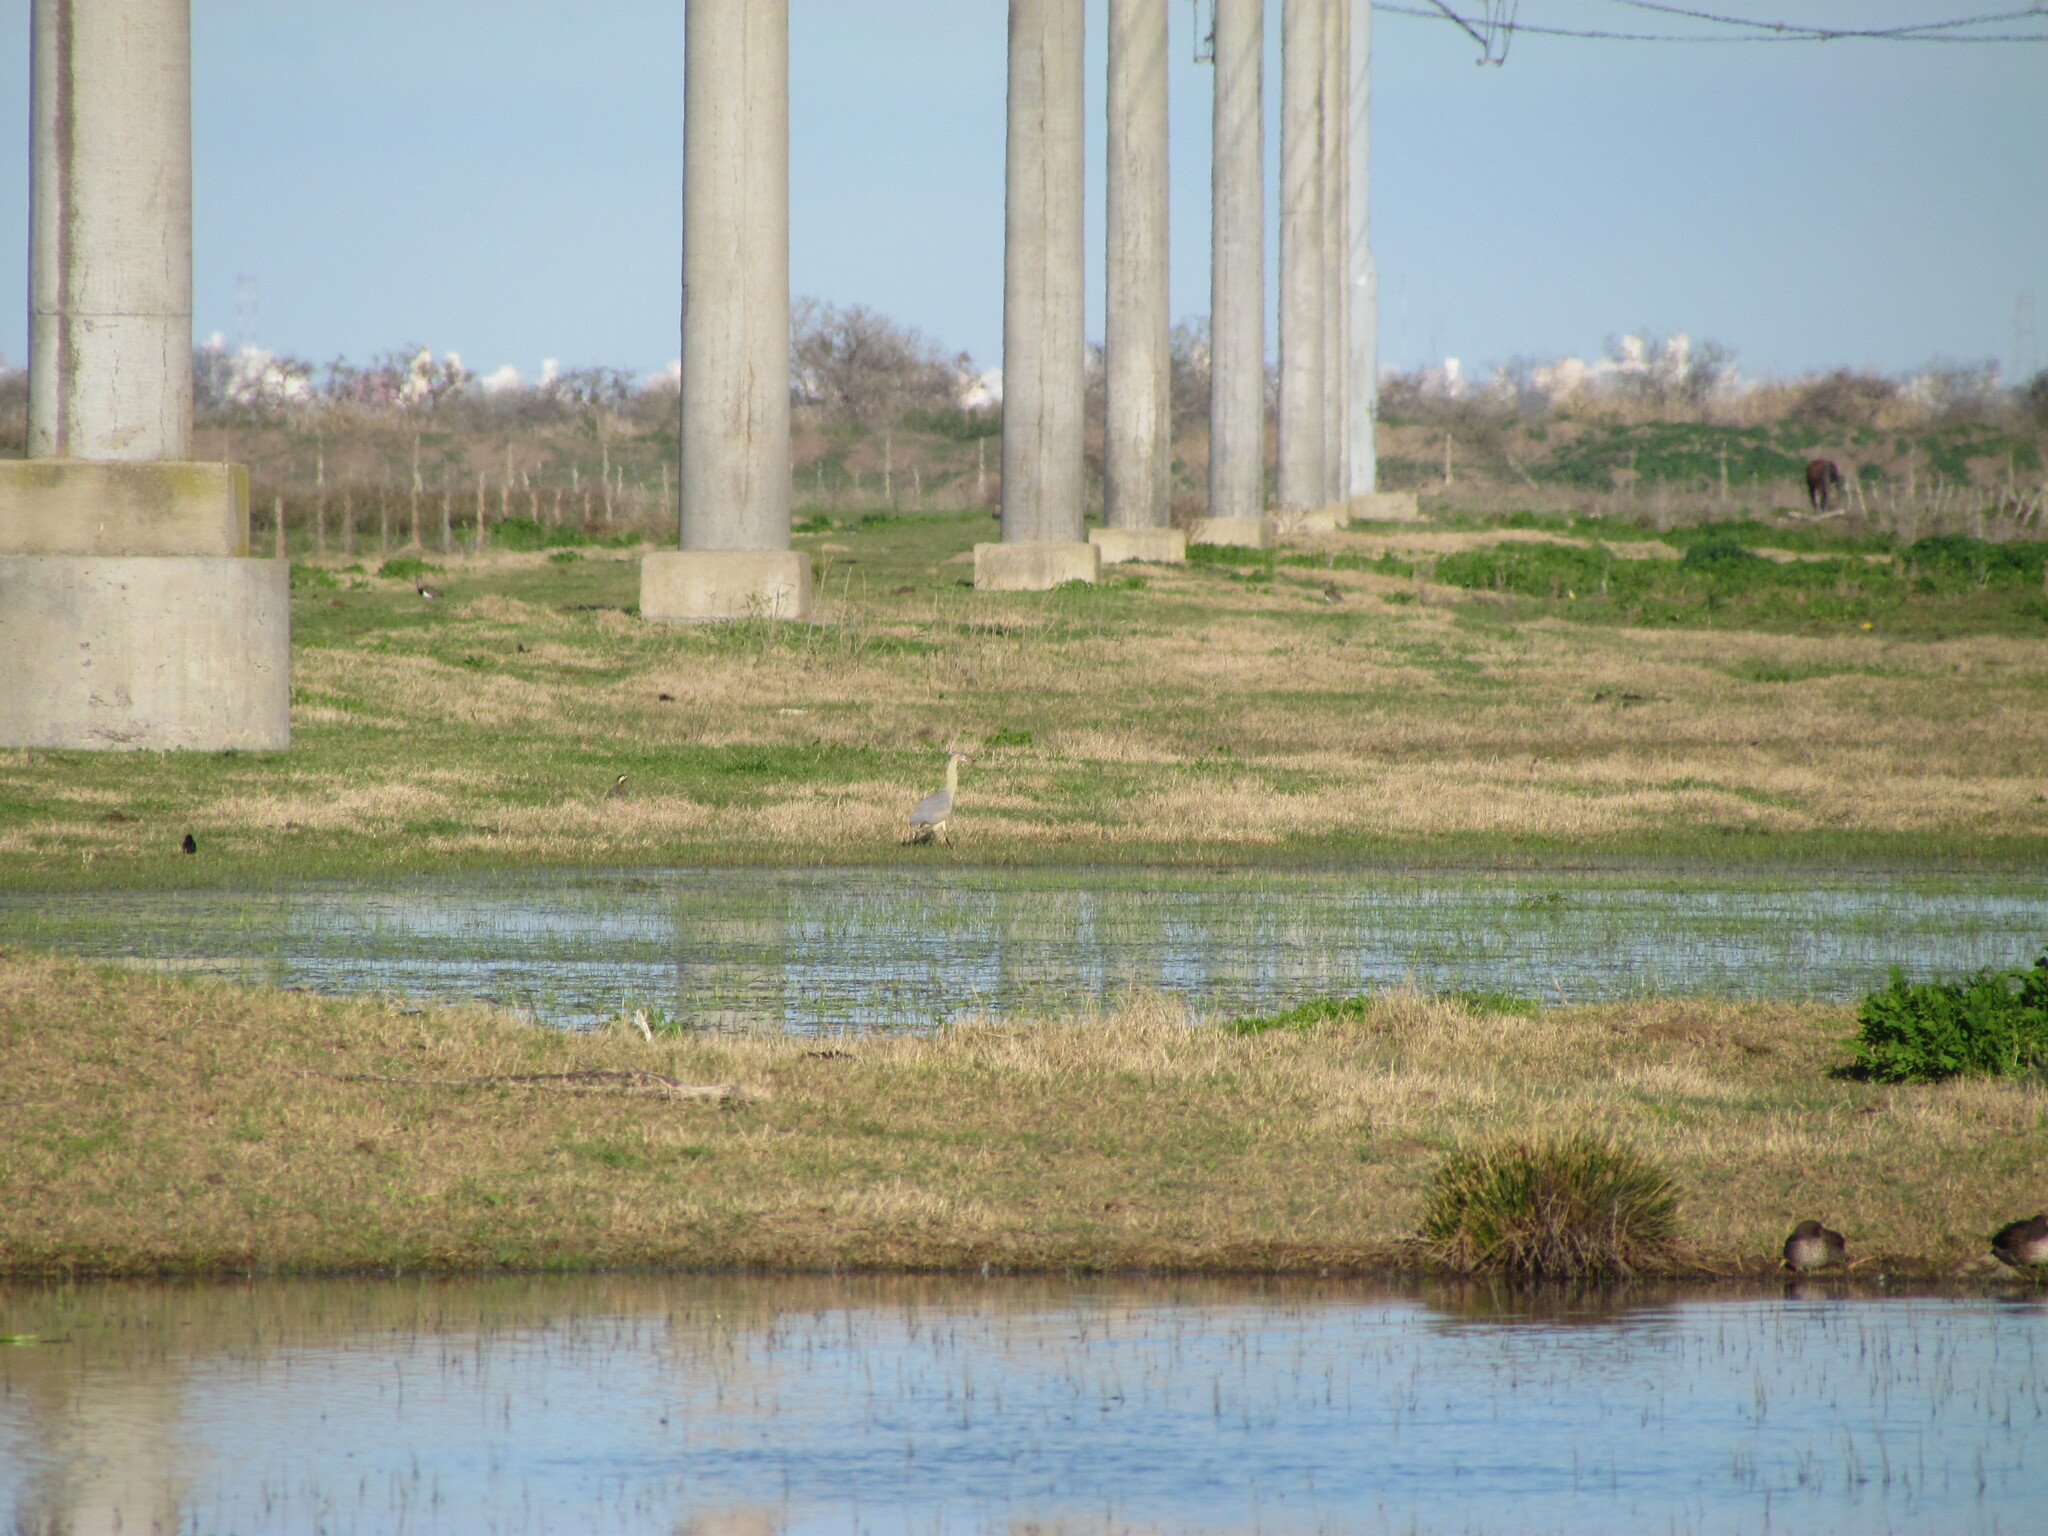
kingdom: Animalia
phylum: Chordata
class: Aves
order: Pelecaniformes
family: Ardeidae
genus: Syrigma
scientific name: Syrigma sibilatrix
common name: Whistling heron
